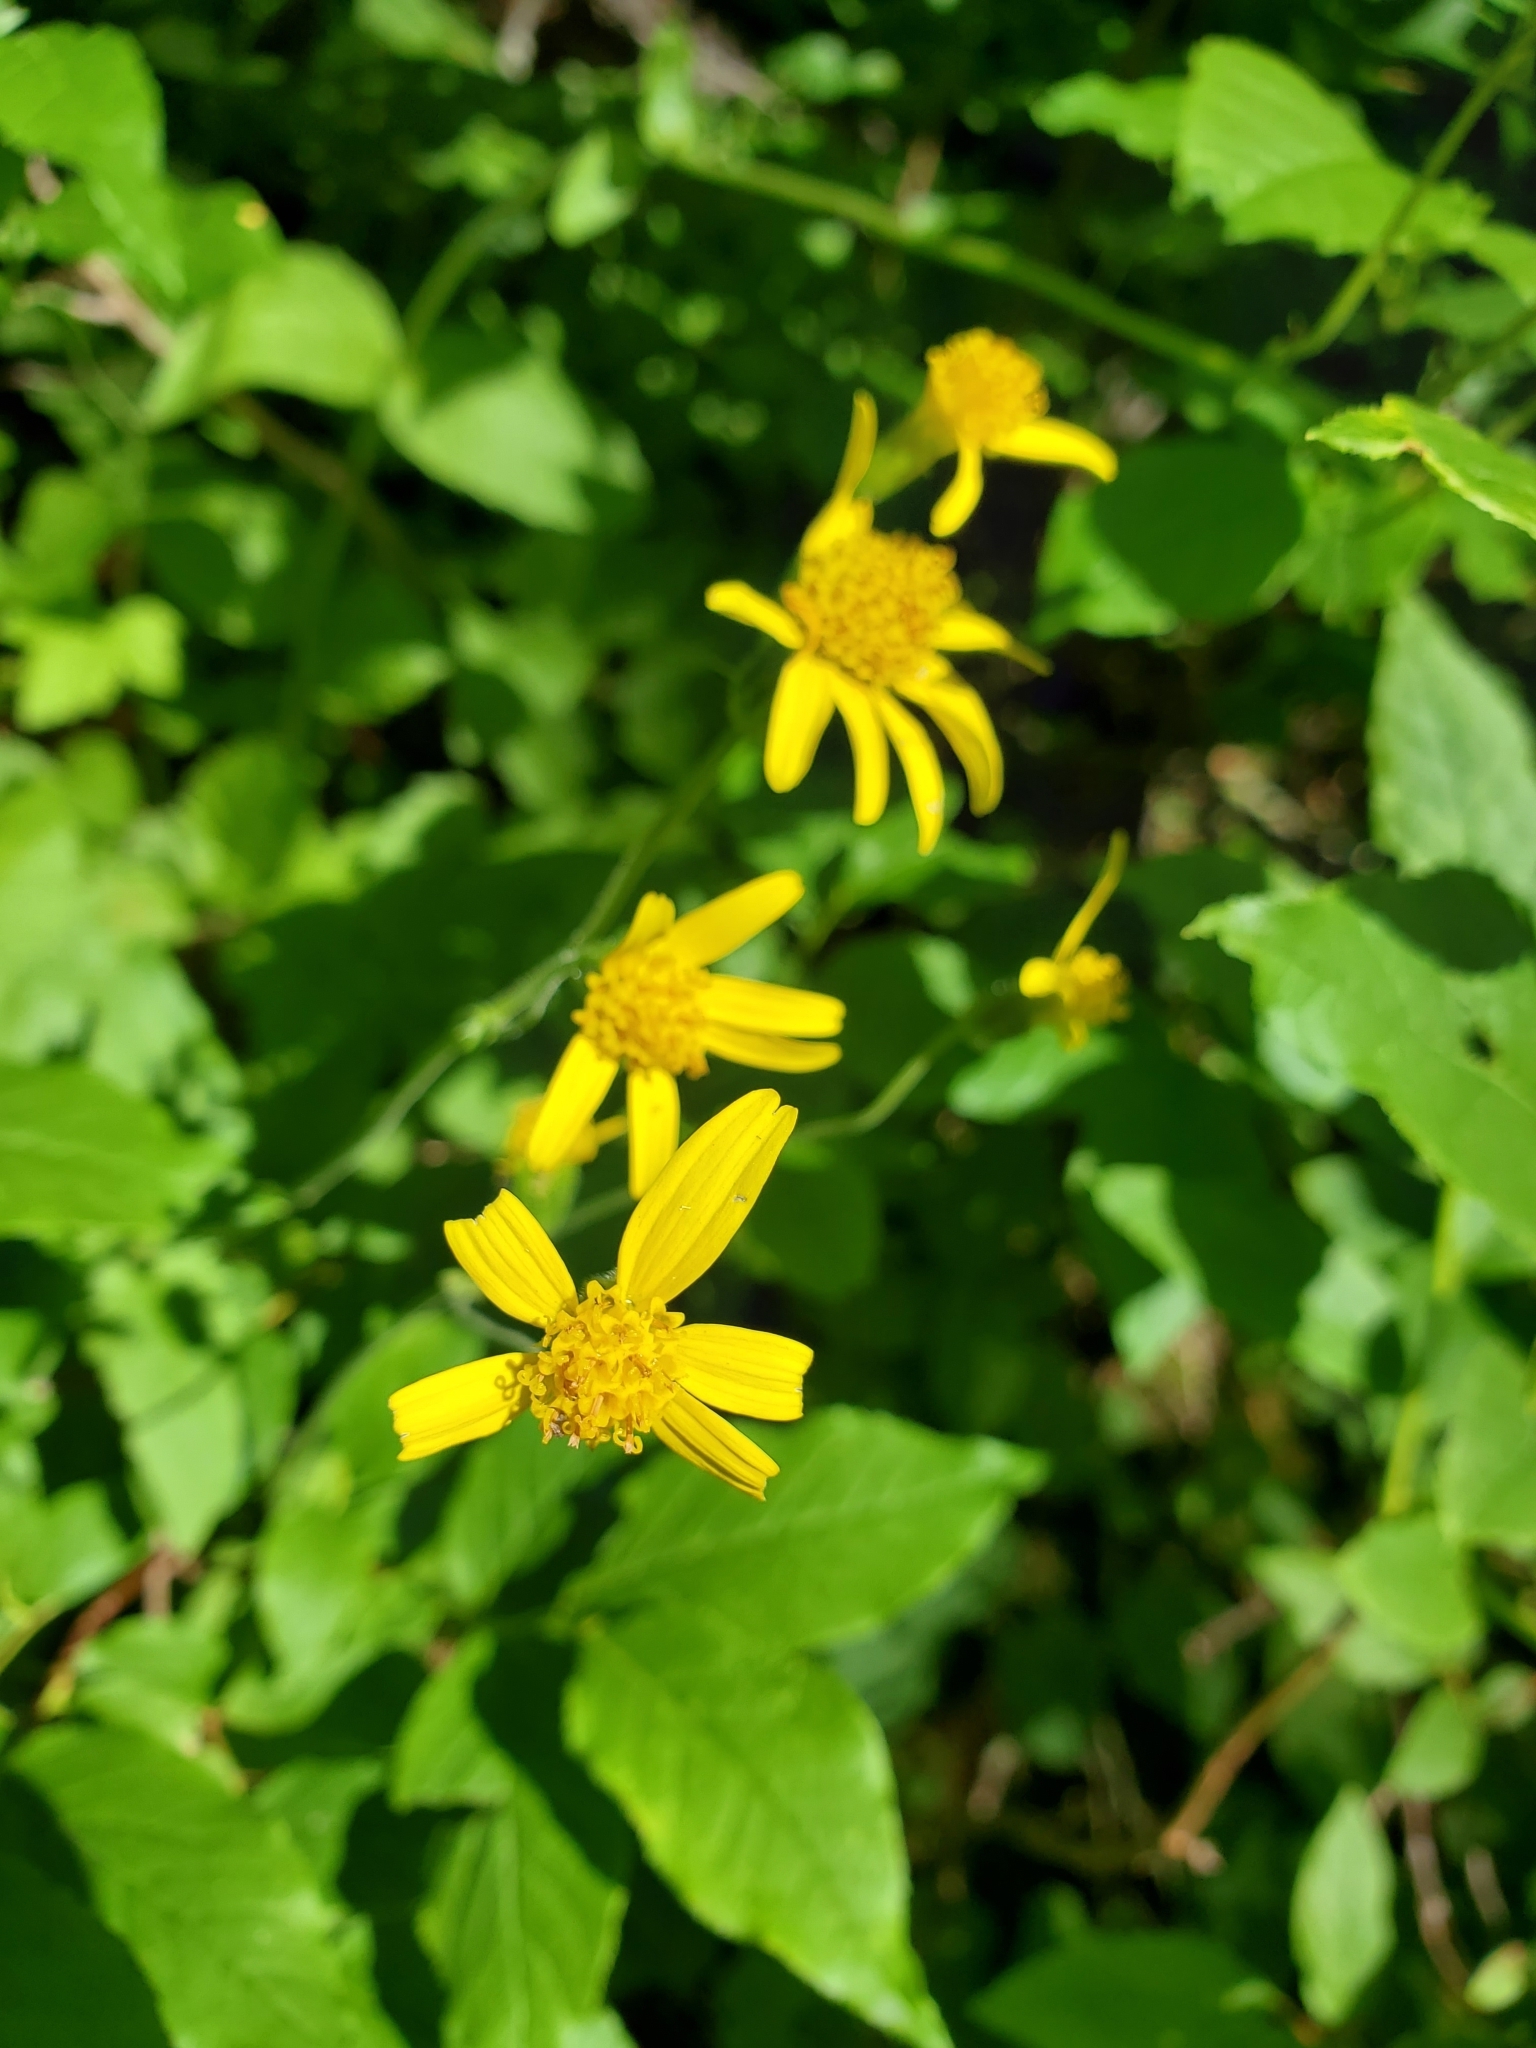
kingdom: Plantae
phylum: Tracheophyta
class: Magnoliopsida
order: Asterales
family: Asteraceae
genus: Arnica
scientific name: Arnica latifolia
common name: Arnica
